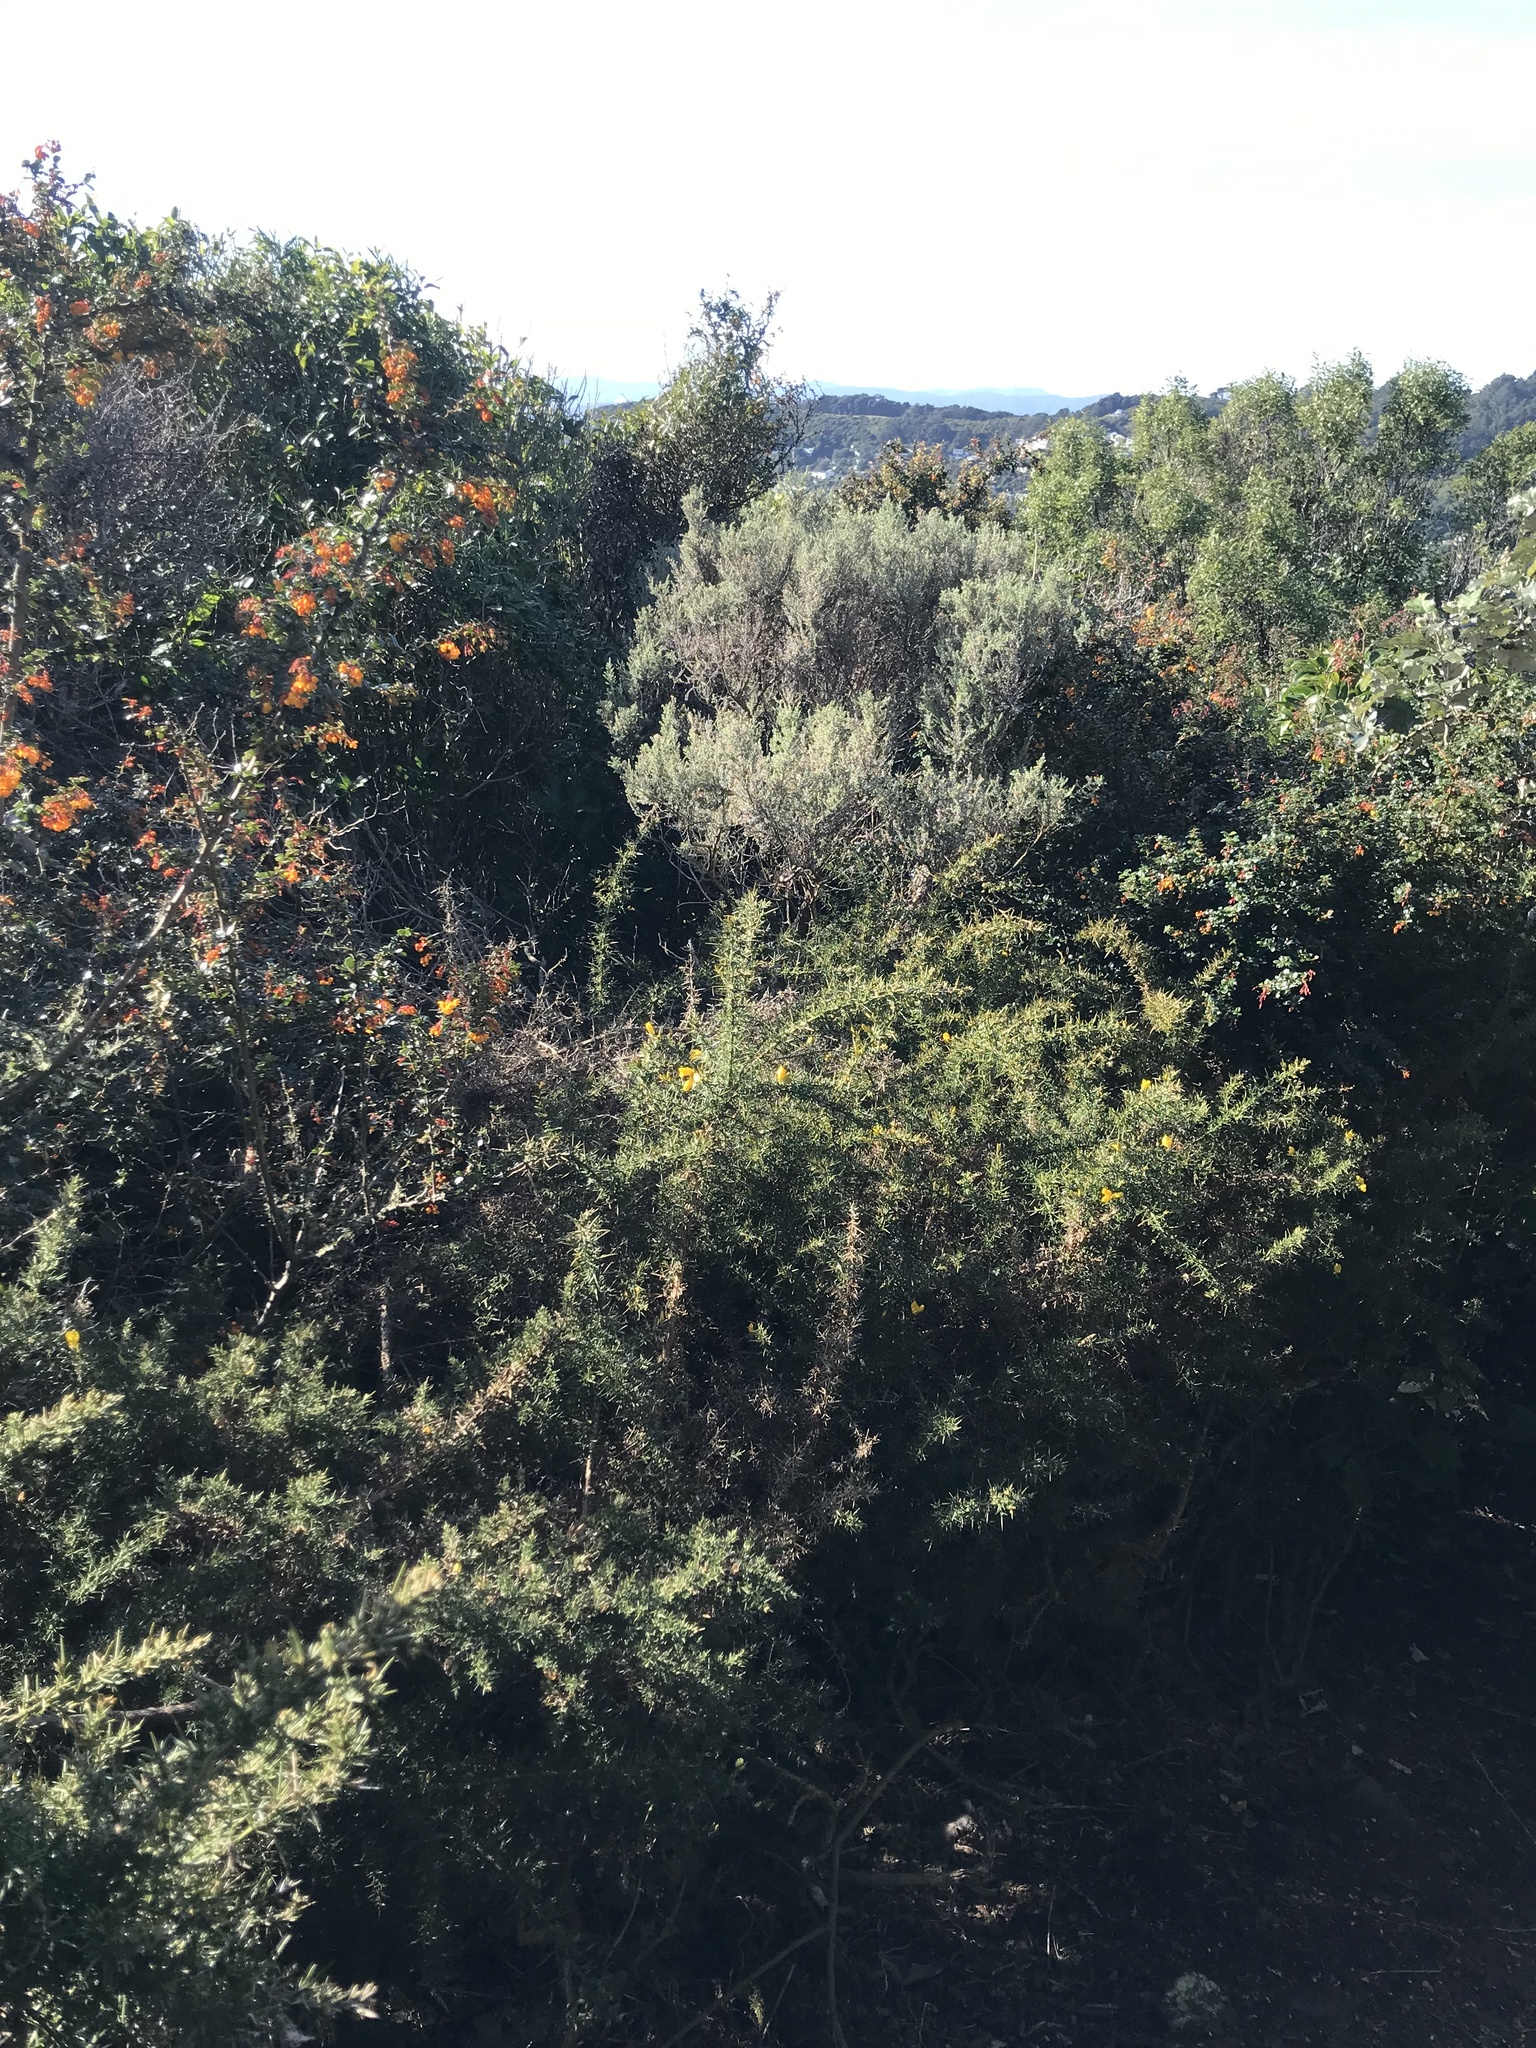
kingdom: Plantae
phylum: Tracheophyta
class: Magnoliopsida
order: Fabales
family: Fabaceae
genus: Ulex
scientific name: Ulex europaeus
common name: Common gorse
